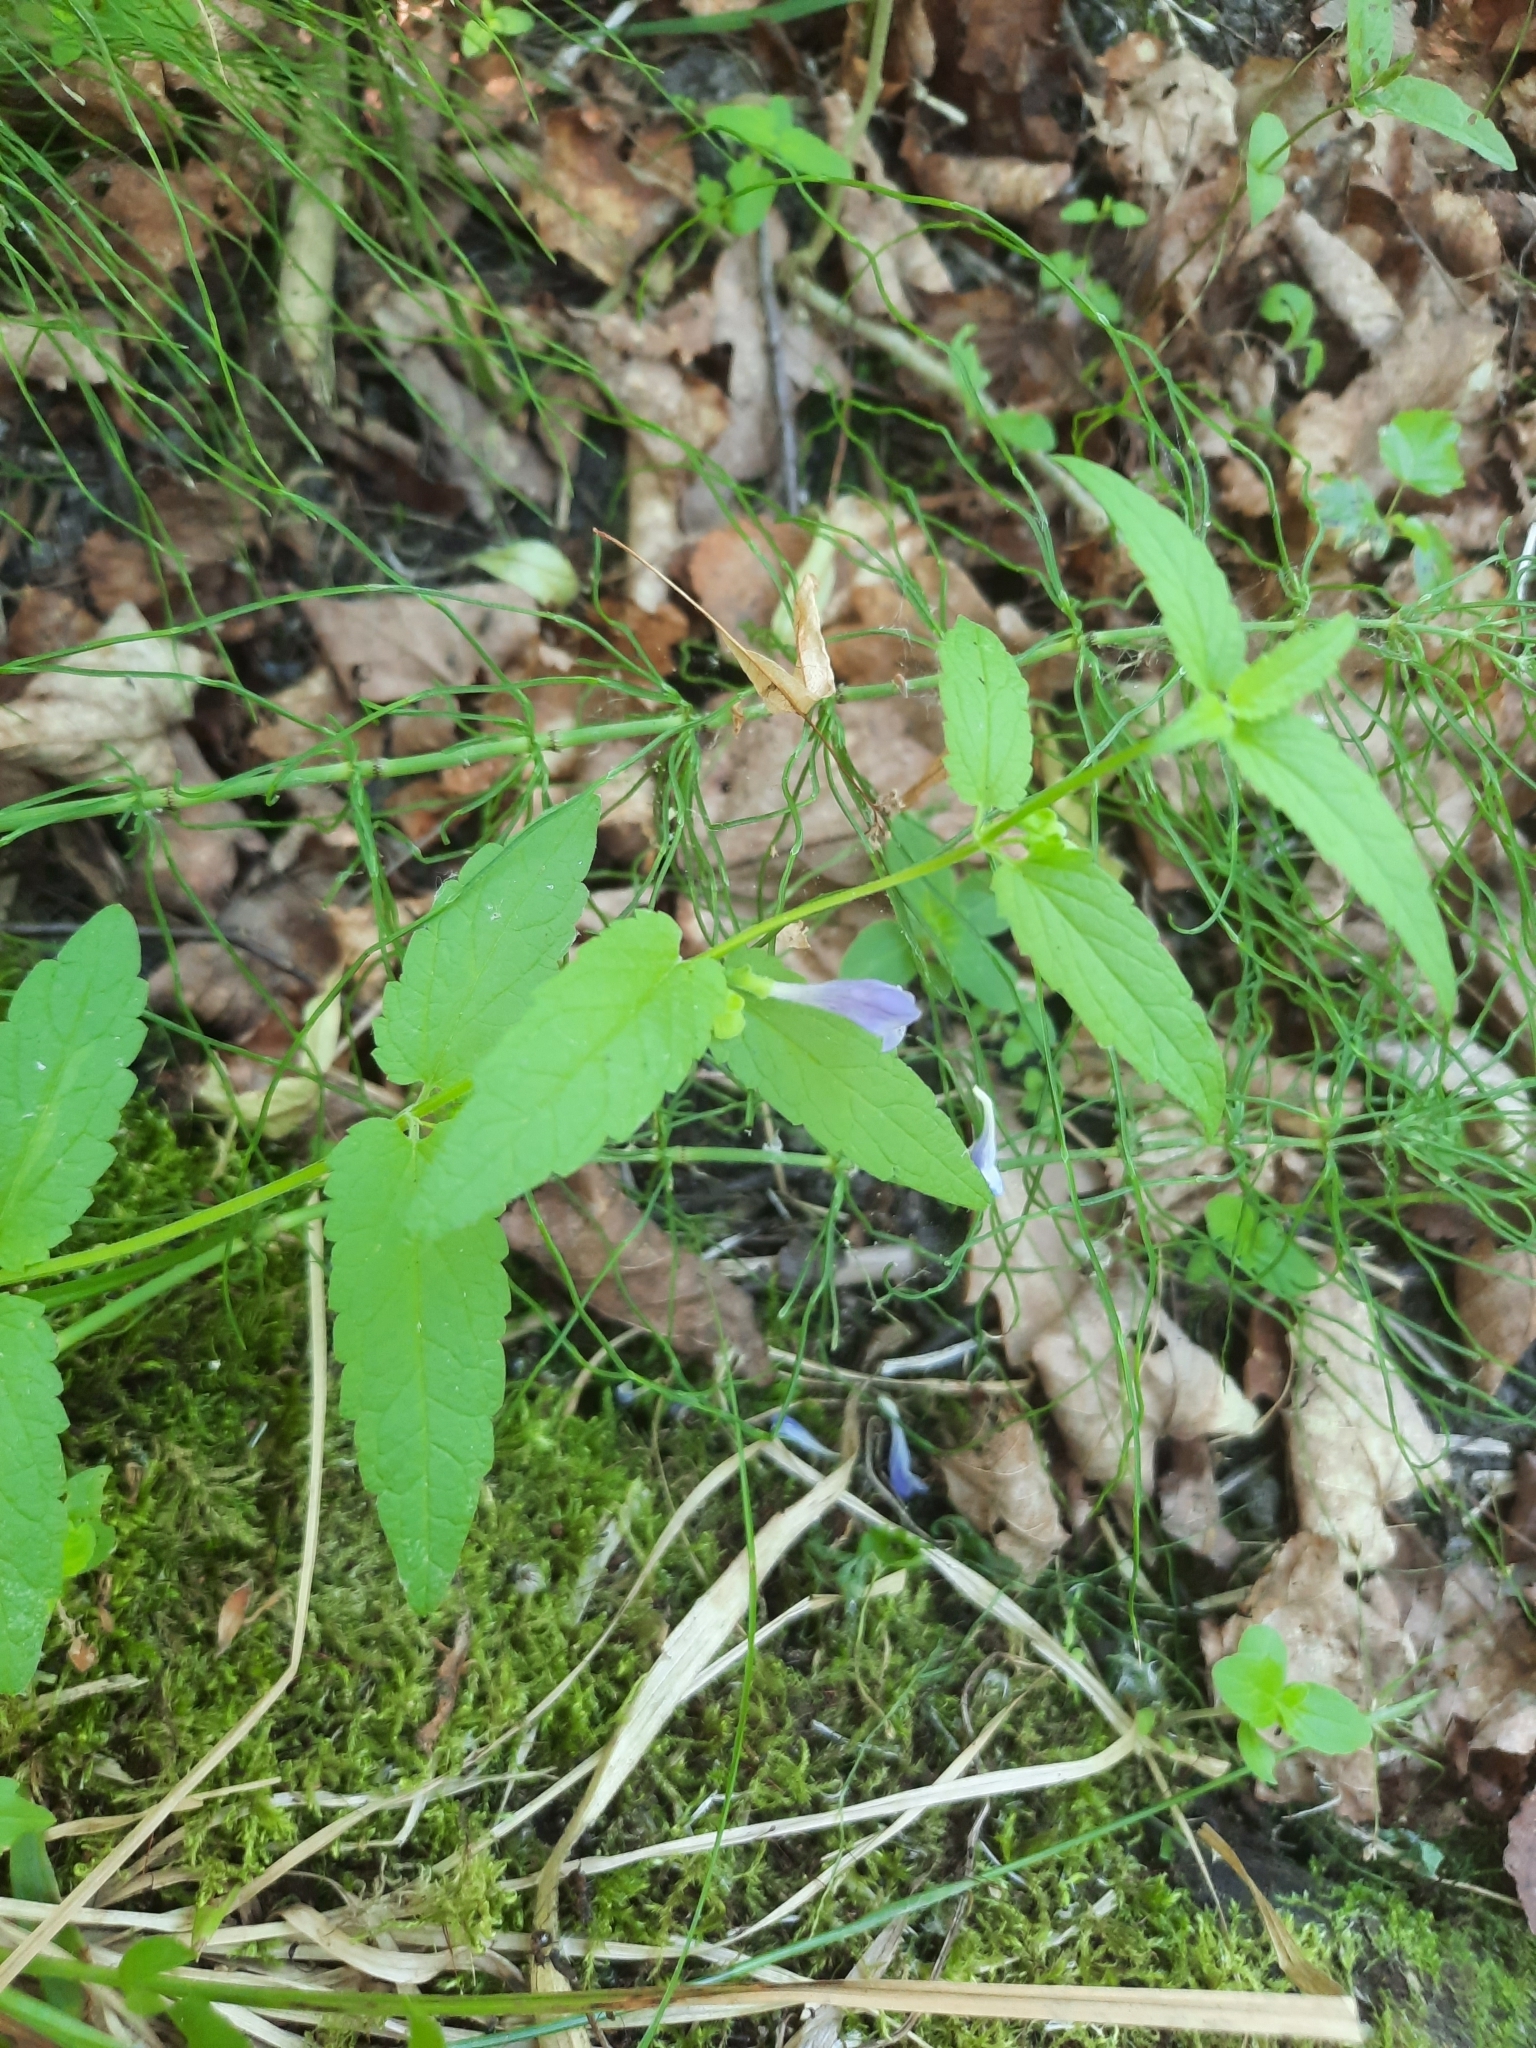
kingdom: Plantae
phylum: Tracheophyta
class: Magnoliopsida
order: Lamiales
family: Lamiaceae
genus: Scutellaria
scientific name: Scutellaria galericulata
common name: Skullcap
